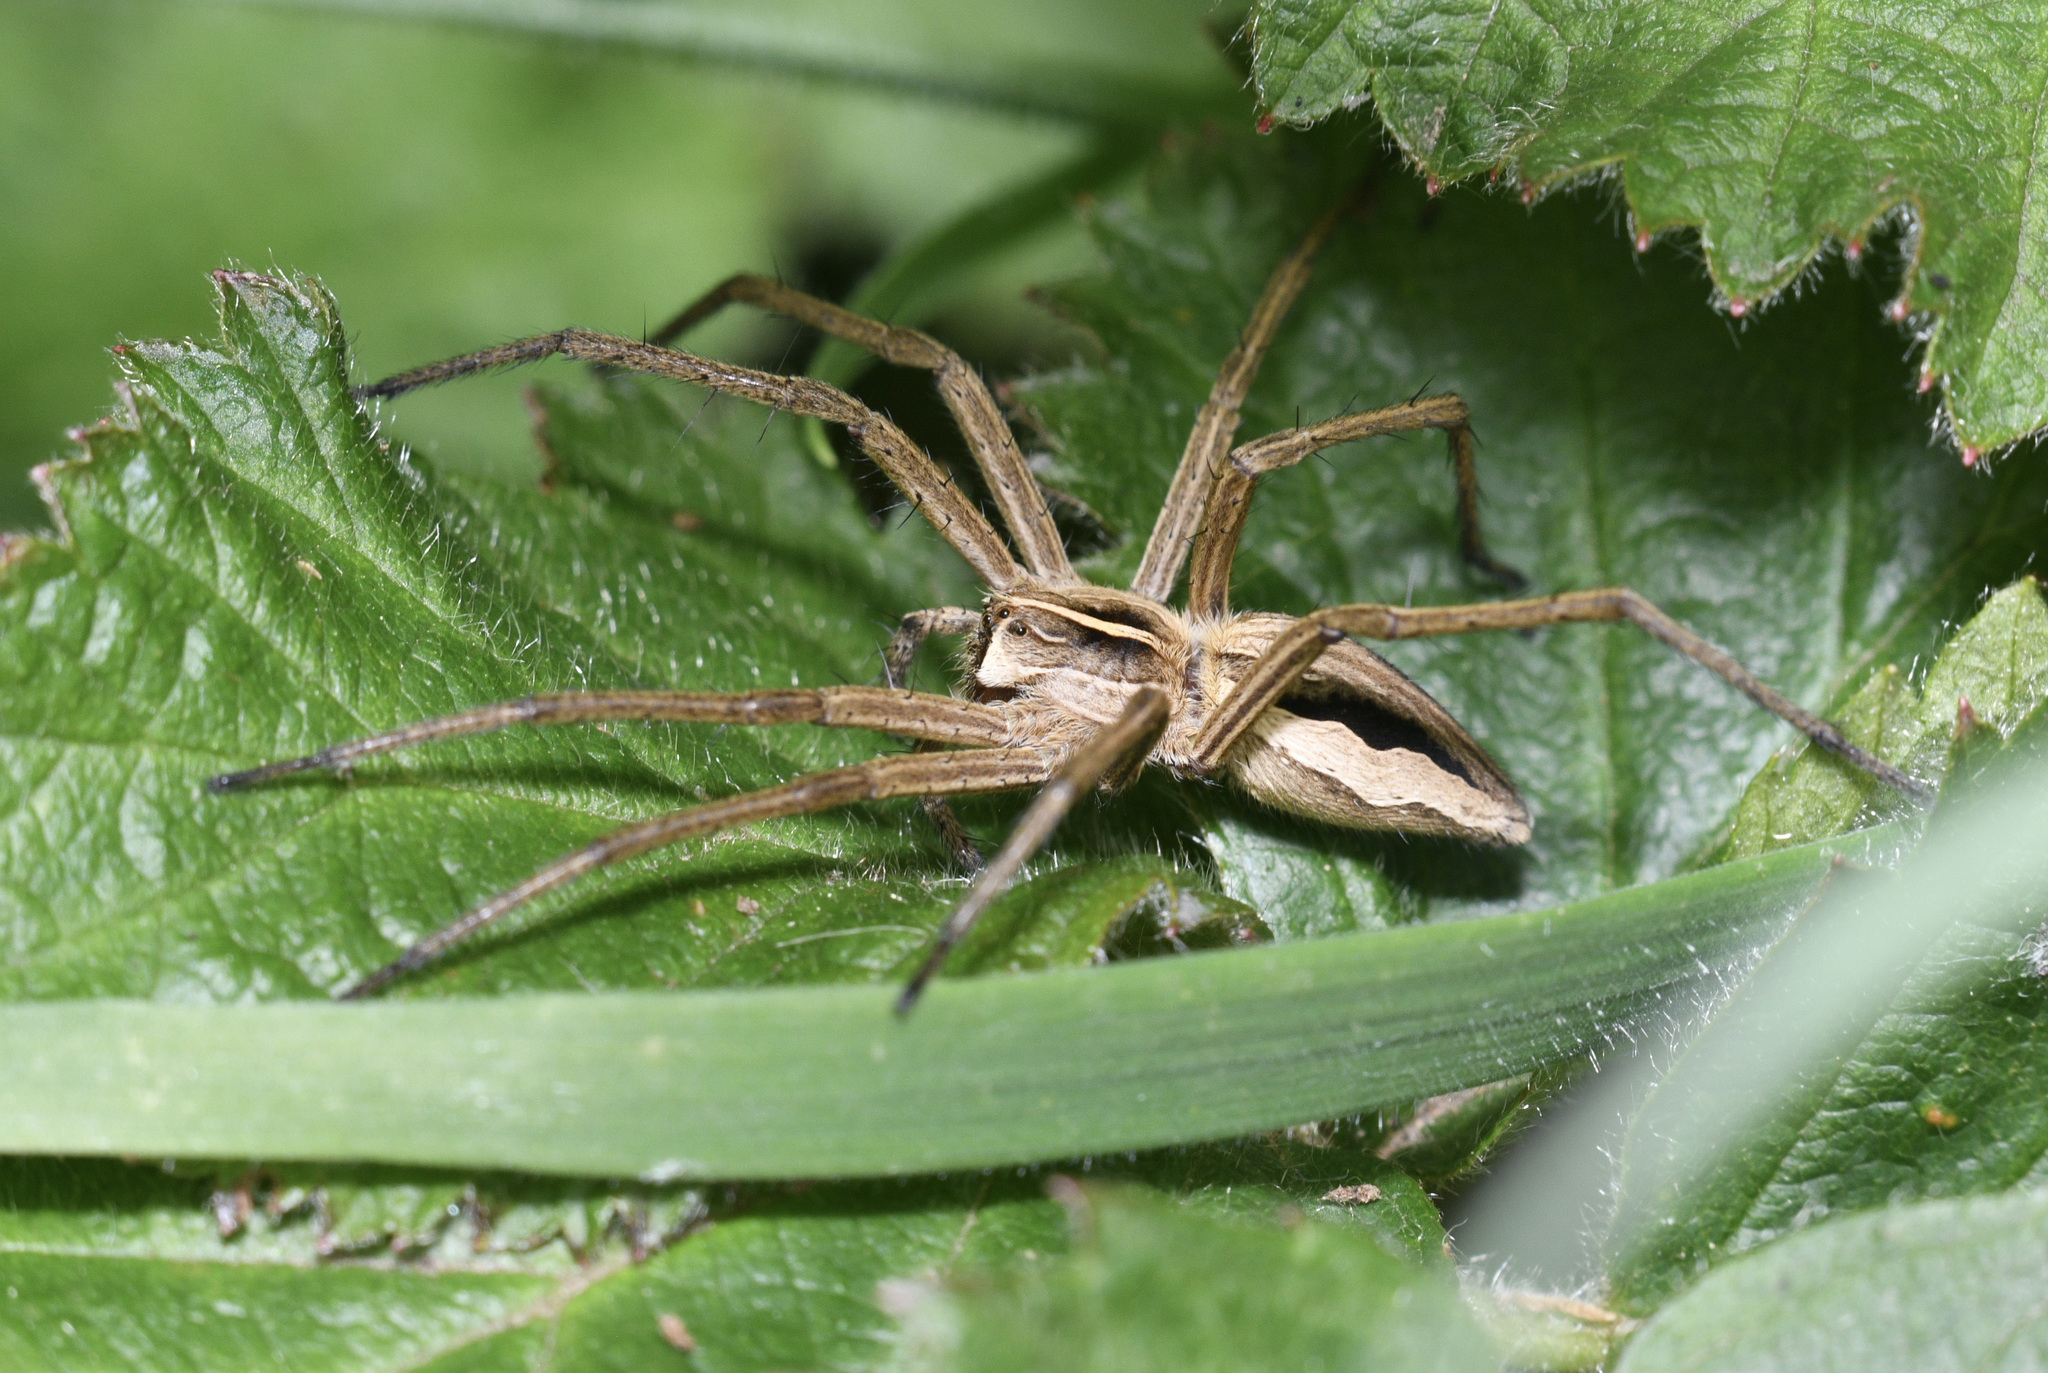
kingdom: Animalia
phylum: Arthropoda
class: Arachnida
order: Araneae
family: Pisauridae
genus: Pisaura
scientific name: Pisaura mirabilis
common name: Tent spider
